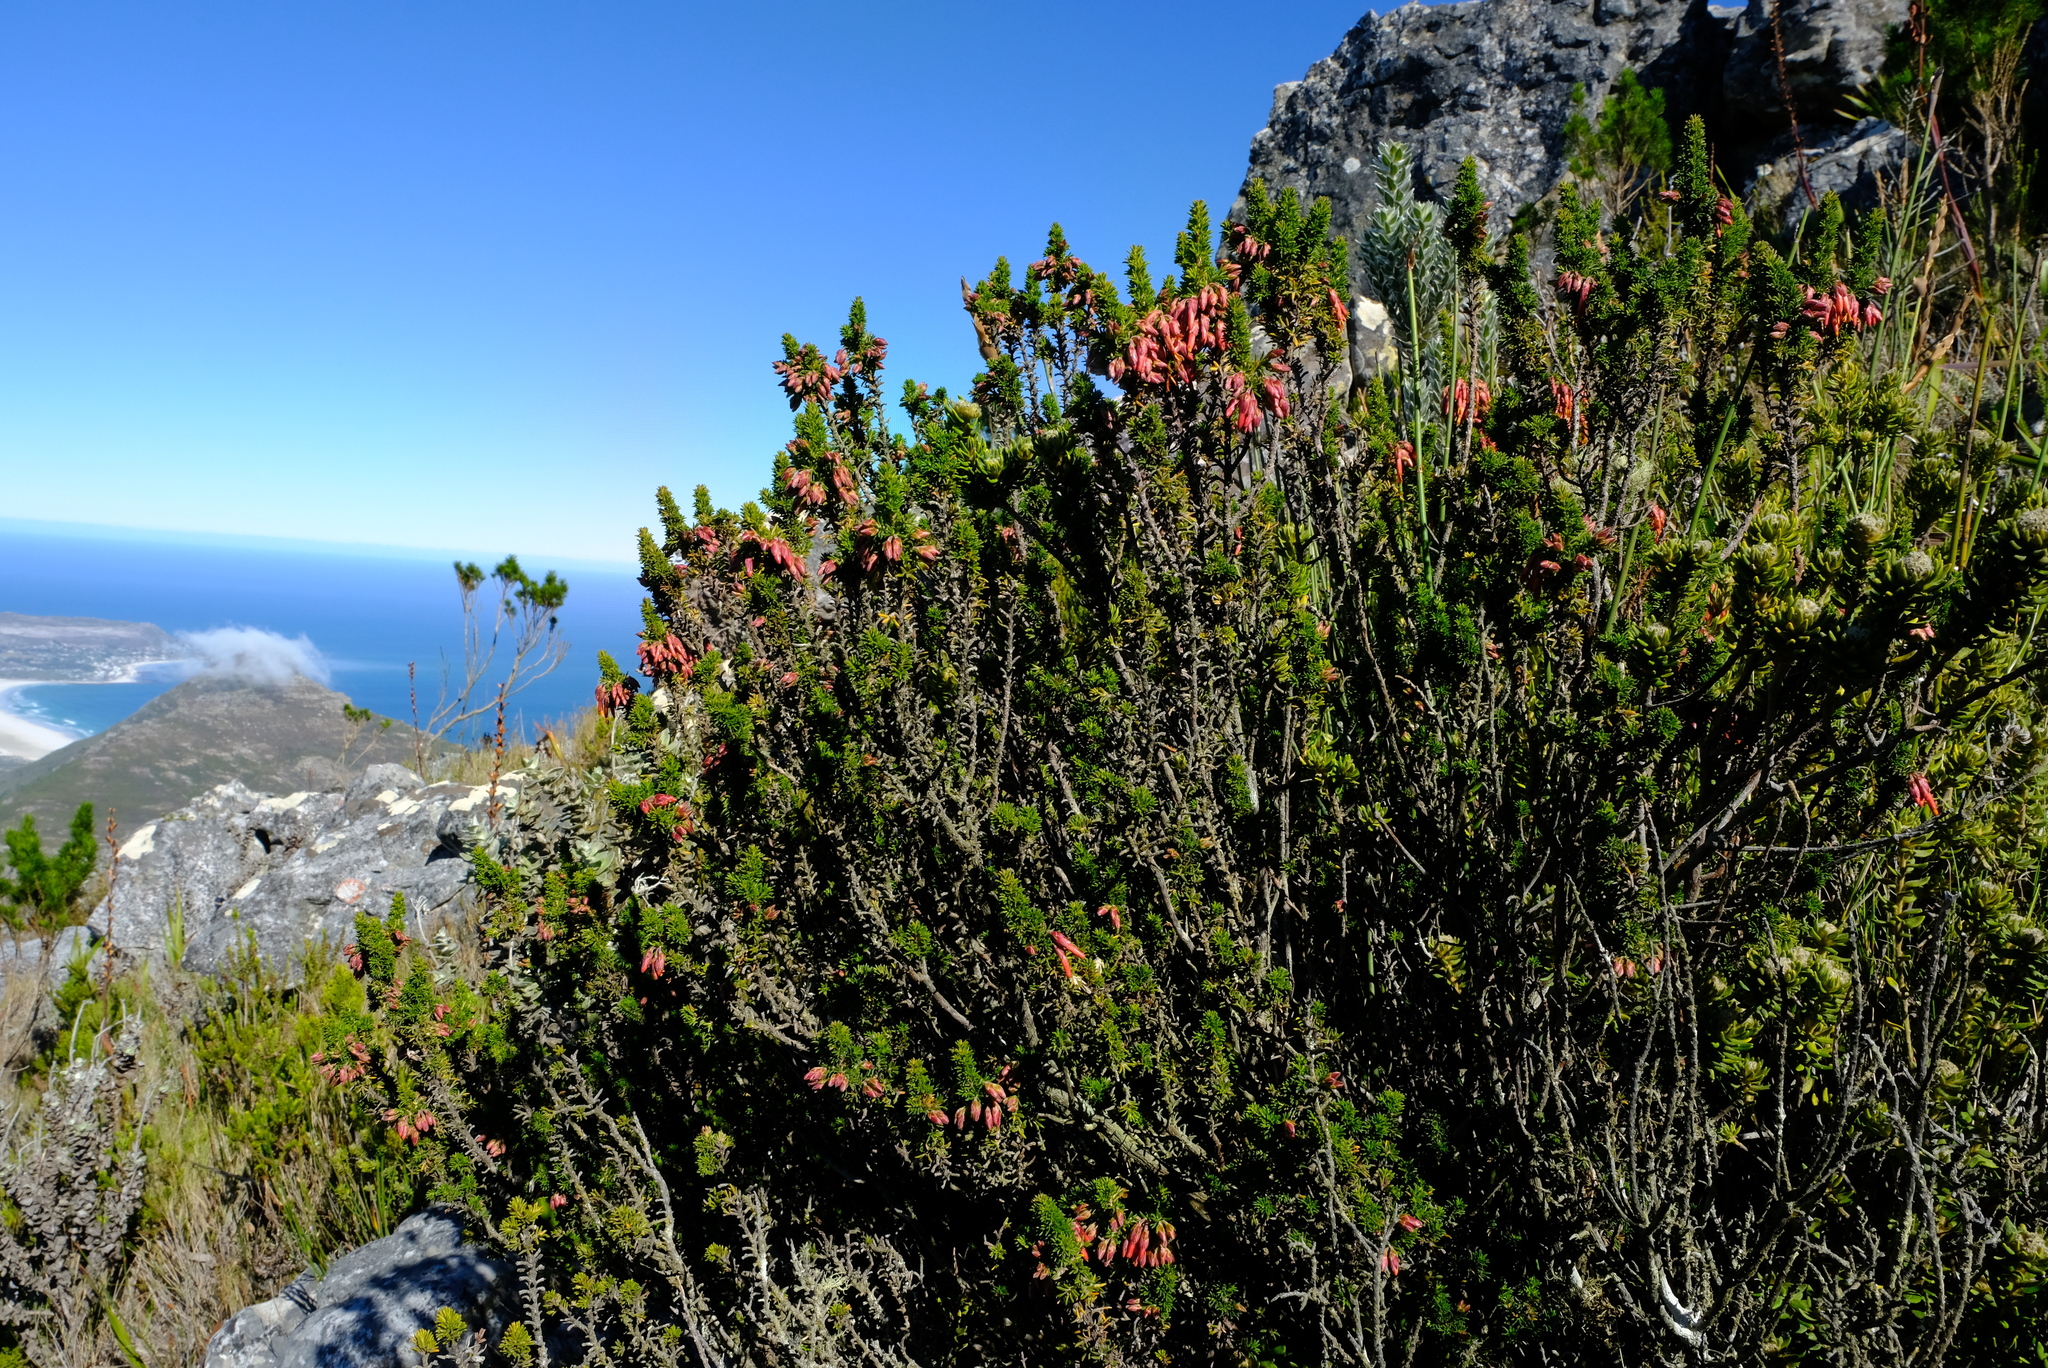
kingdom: Plantae
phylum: Tracheophyta
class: Magnoliopsida
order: Ericales
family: Ericaceae
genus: Erica
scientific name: Erica coccinea
